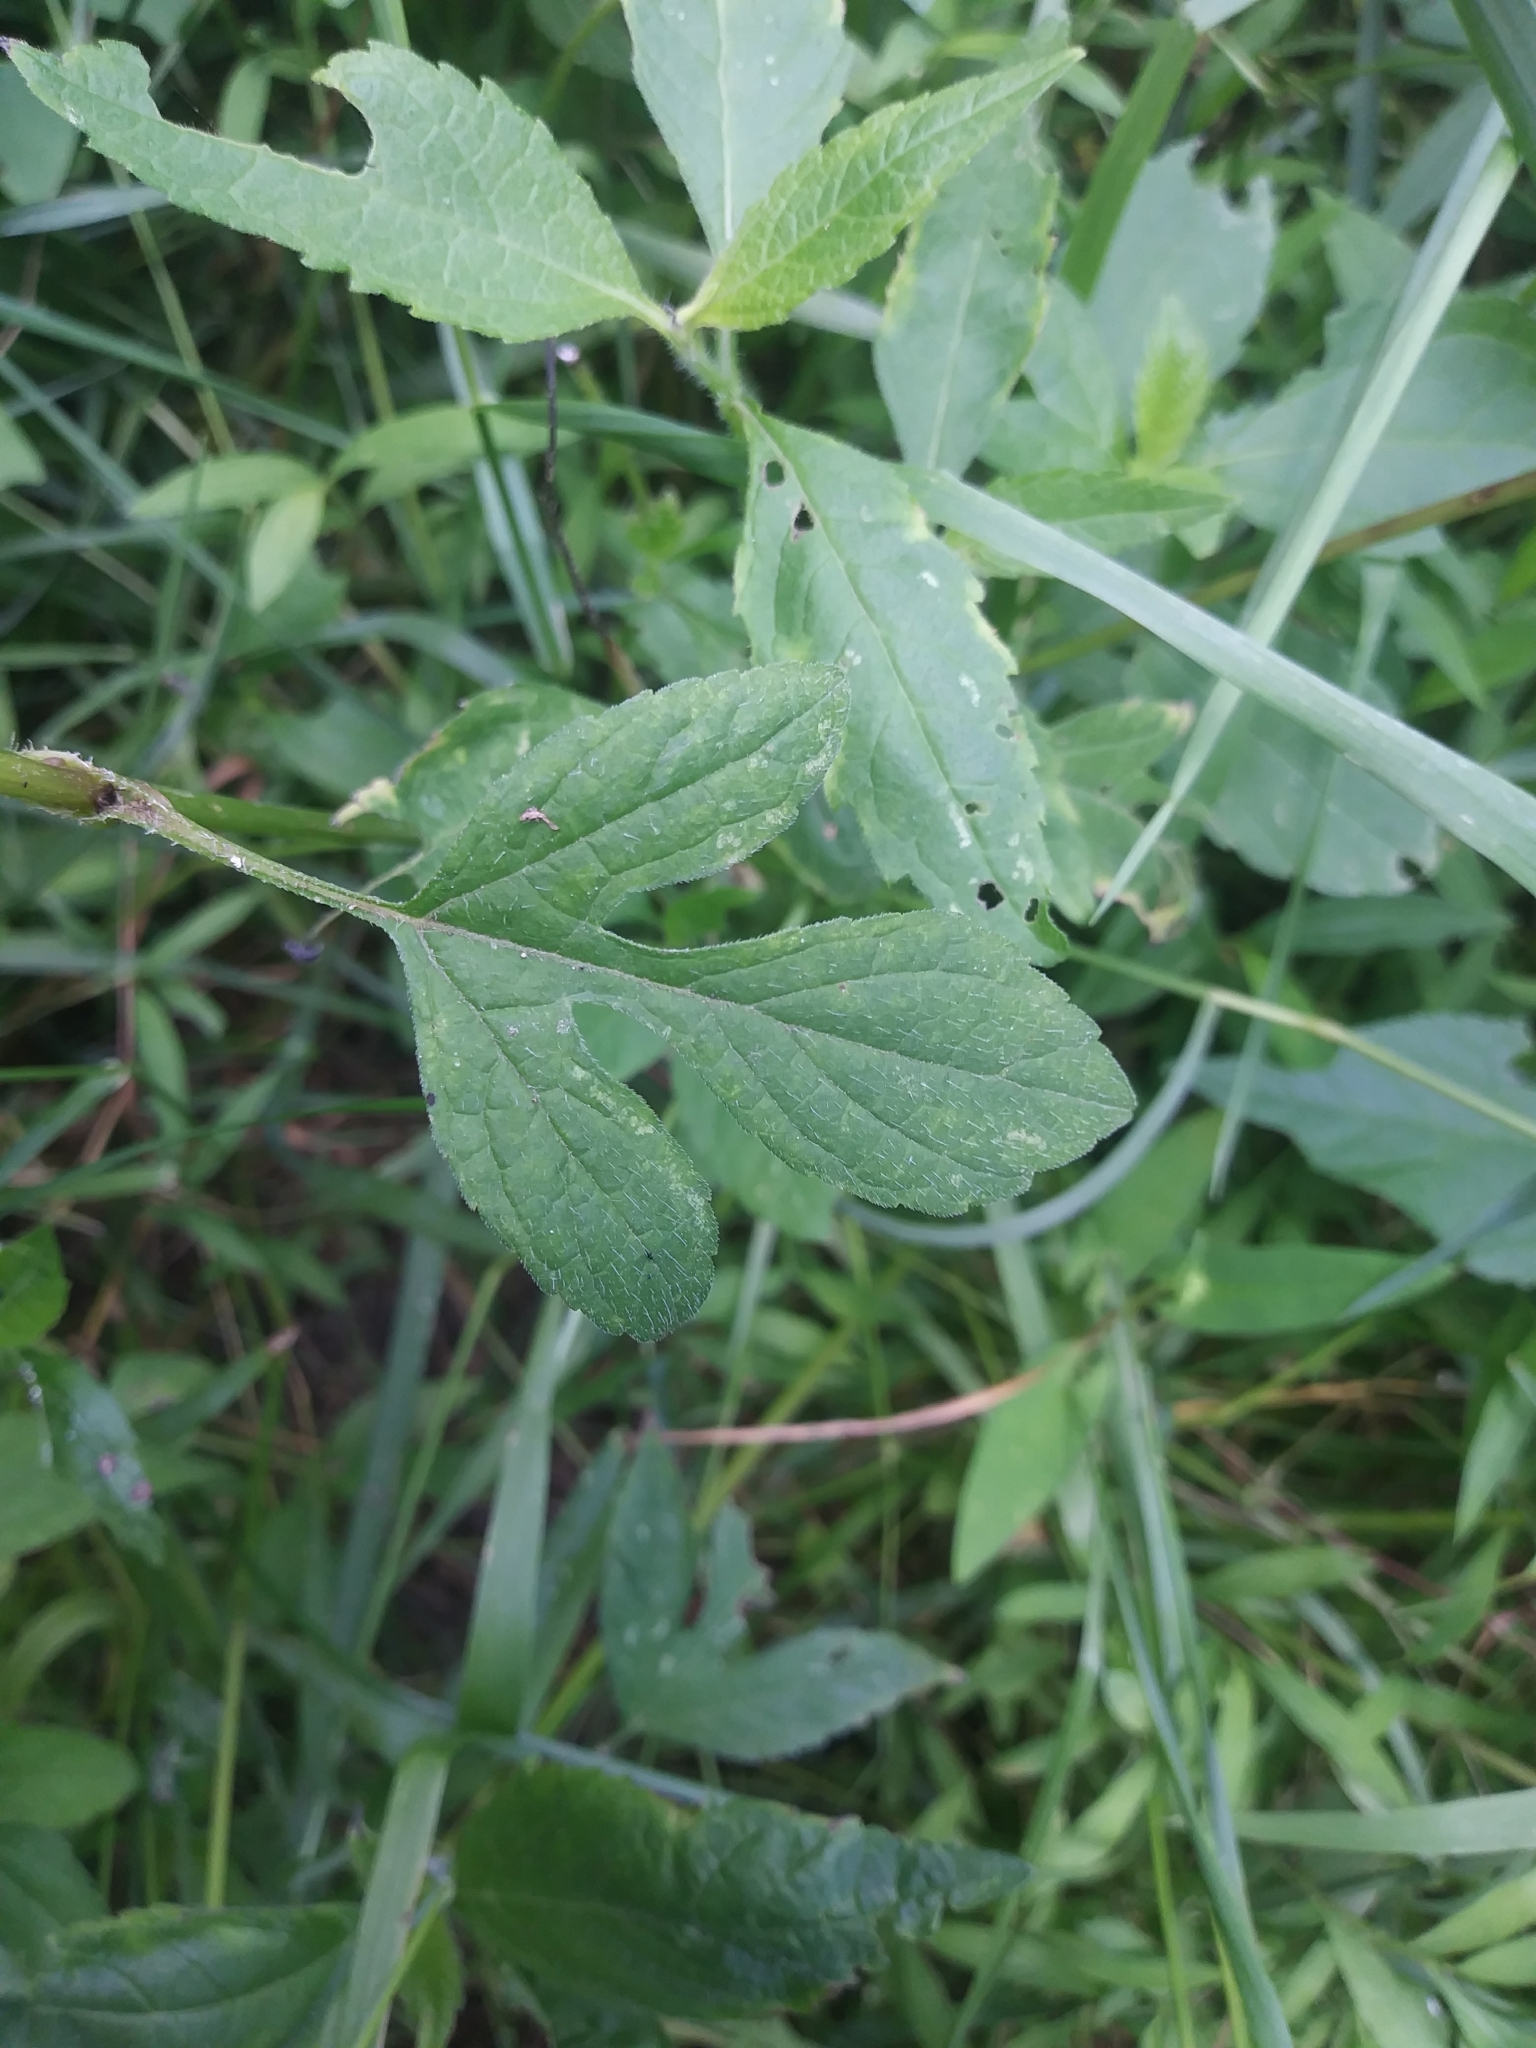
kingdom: Plantae
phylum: Tracheophyta
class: Magnoliopsida
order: Asterales
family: Asteraceae
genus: Ambrosia
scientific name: Ambrosia trifida
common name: Giant ragweed
